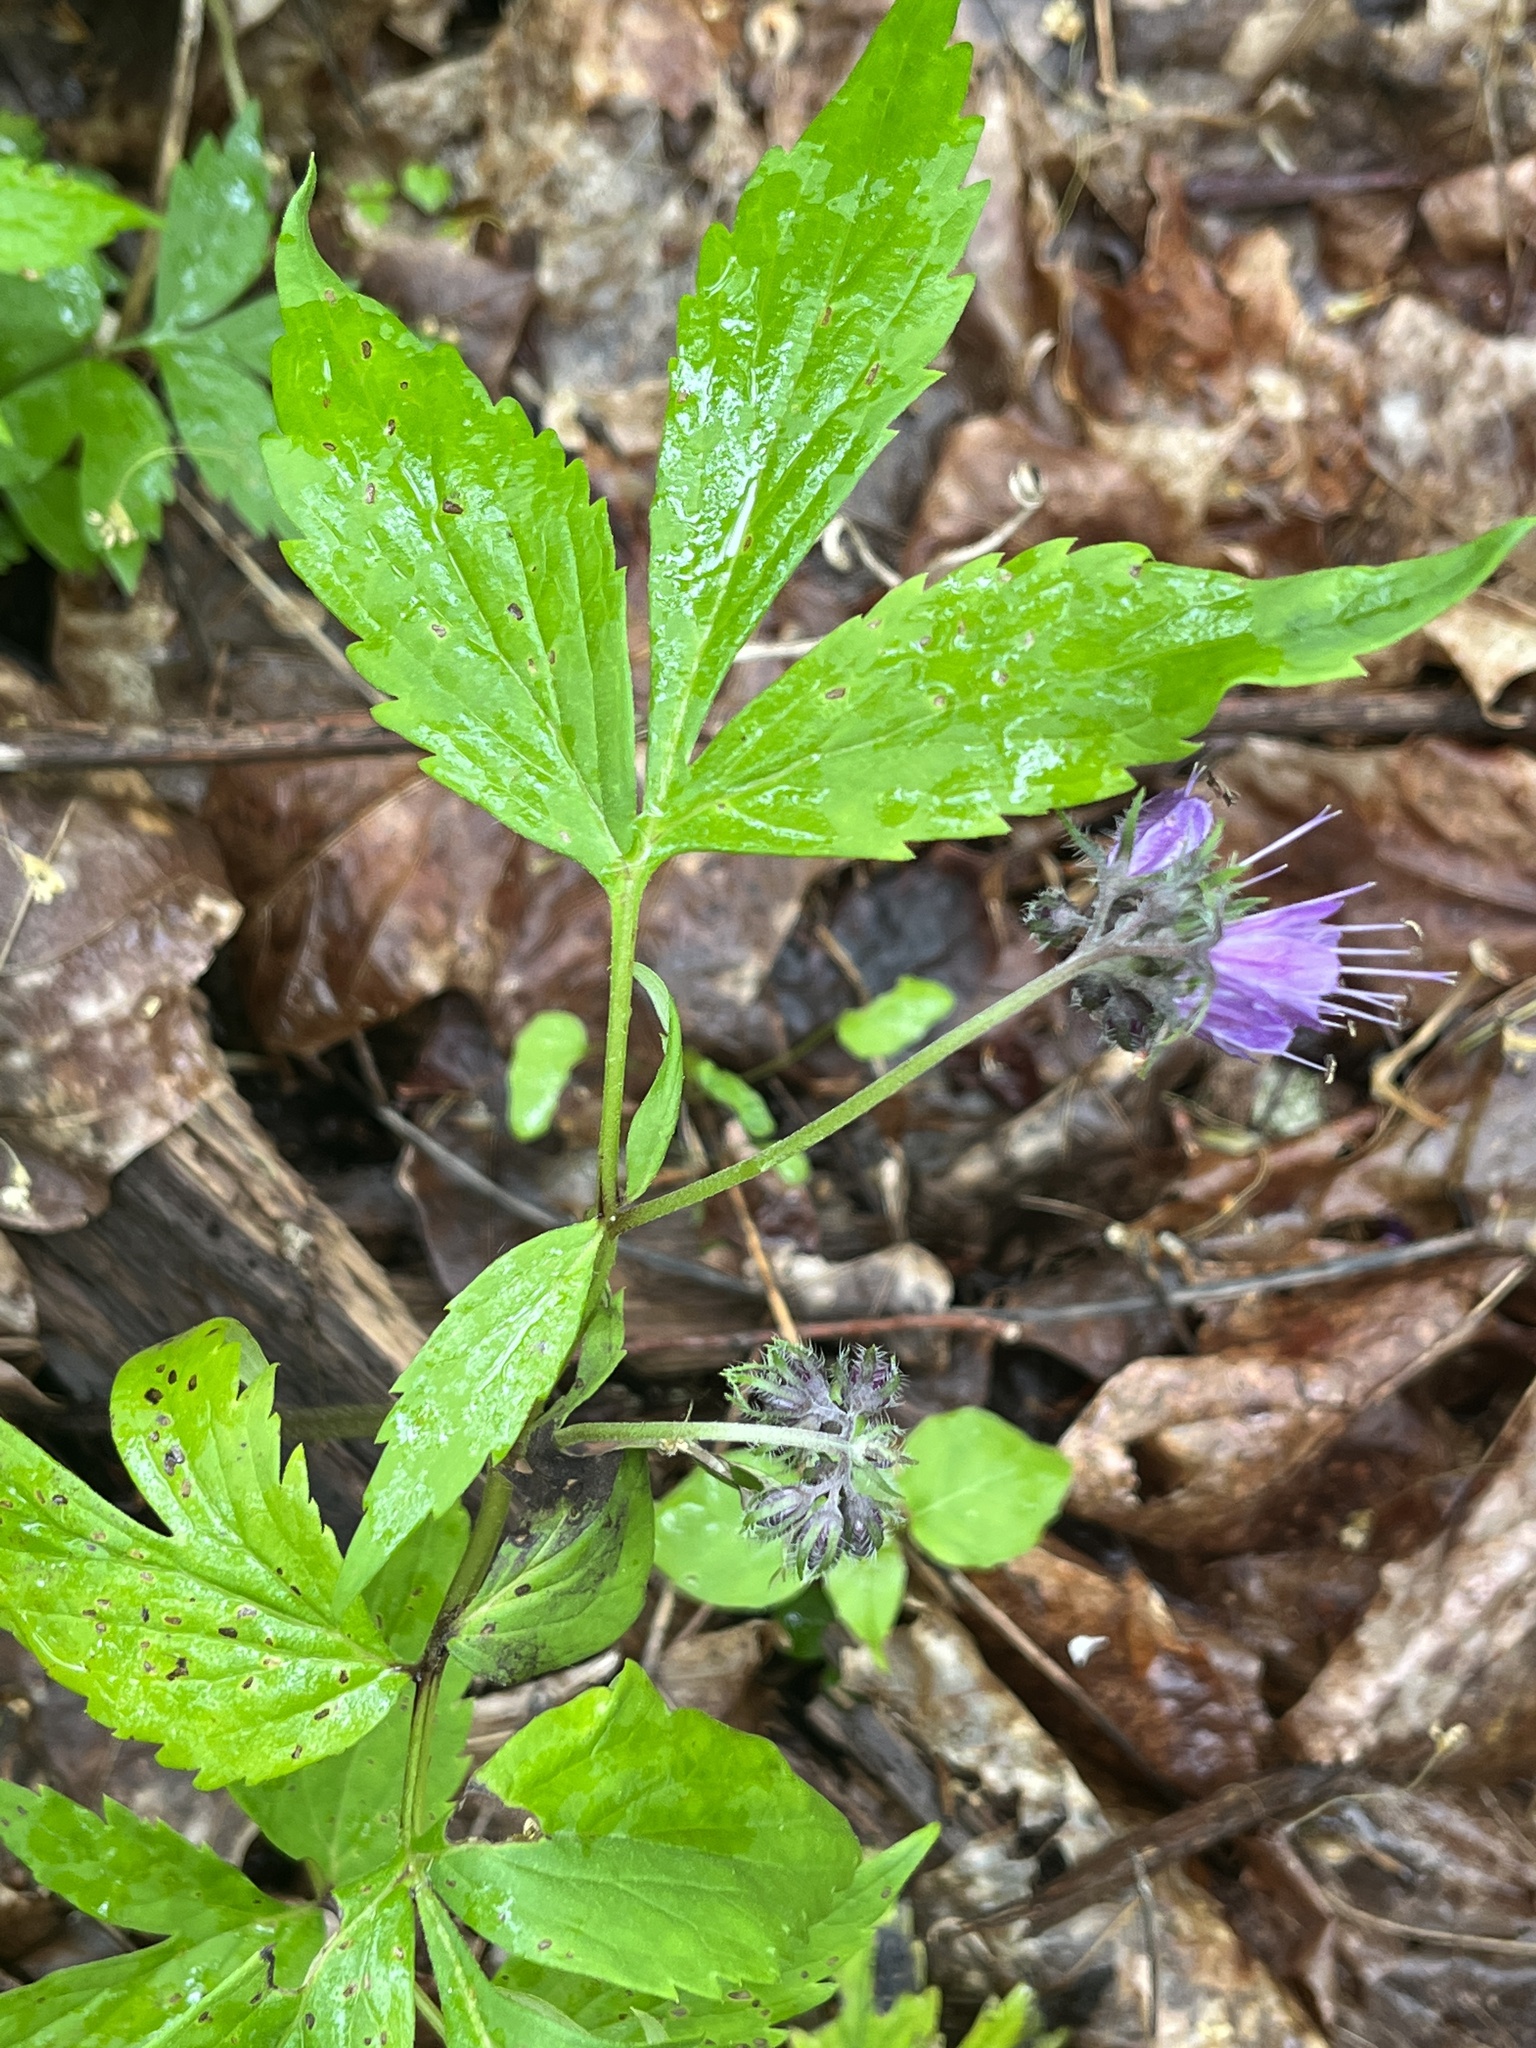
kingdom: Plantae
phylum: Tracheophyta
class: Magnoliopsida
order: Boraginales
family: Hydrophyllaceae
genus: Hydrophyllum
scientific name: Hydrophyllum virginianum
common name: Virginia waterleaf
